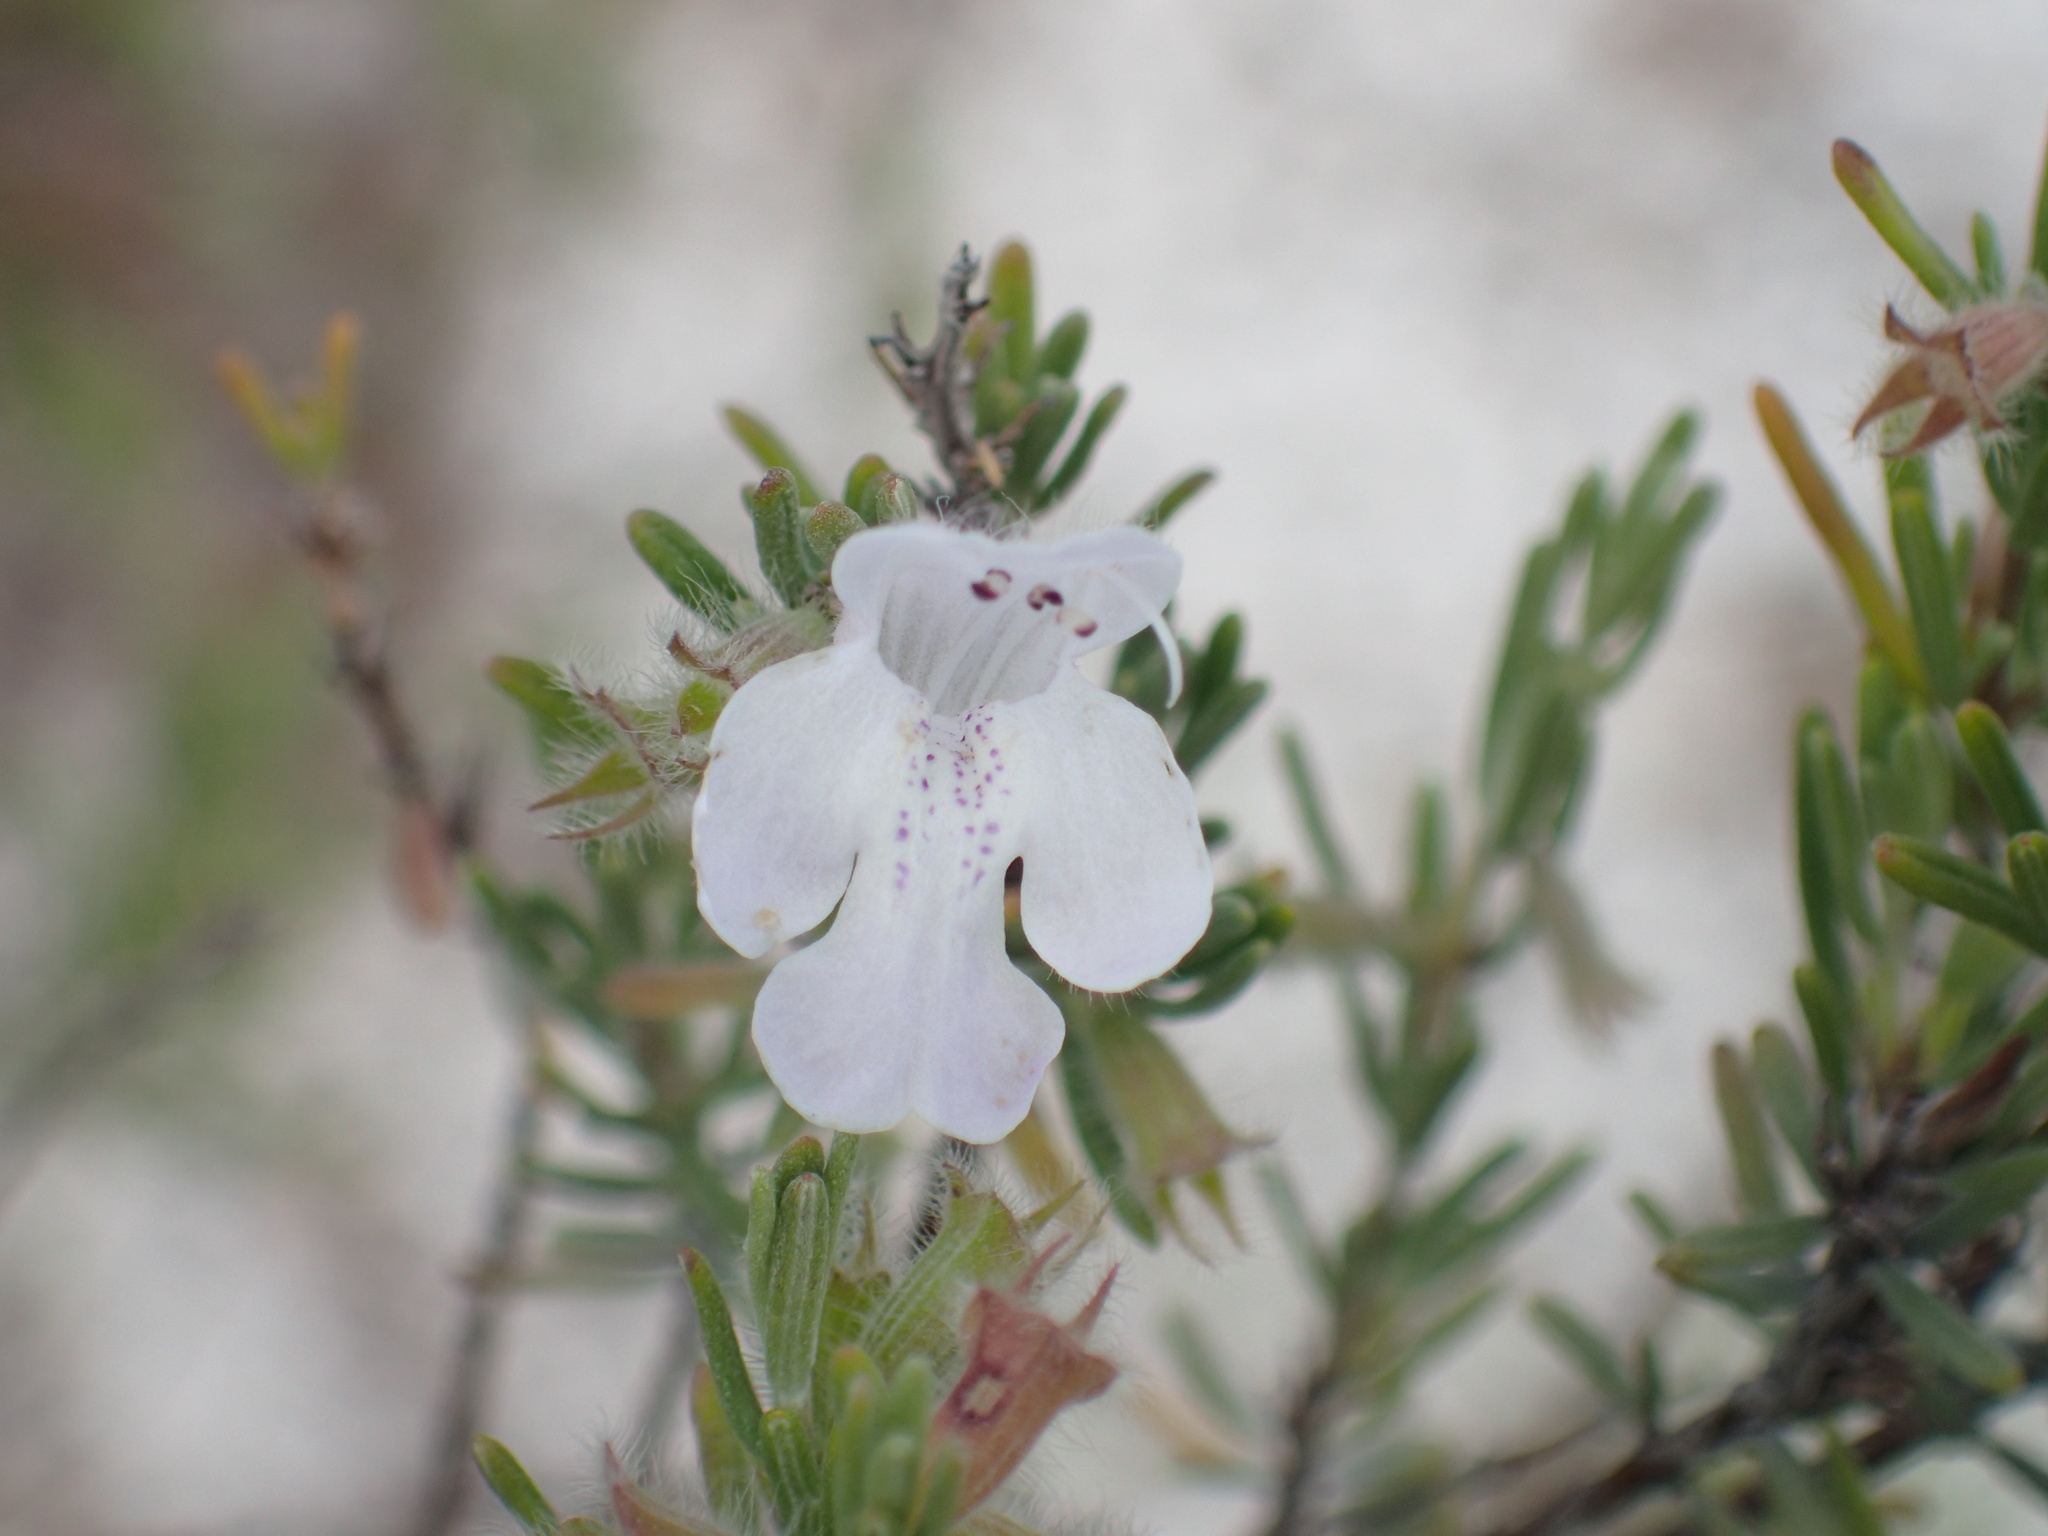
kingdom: Plantae
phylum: Tracheophyta
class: Magnoliopsida
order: Lamiales
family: Lamiaceae
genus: Conradina
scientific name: Conradina canescens
